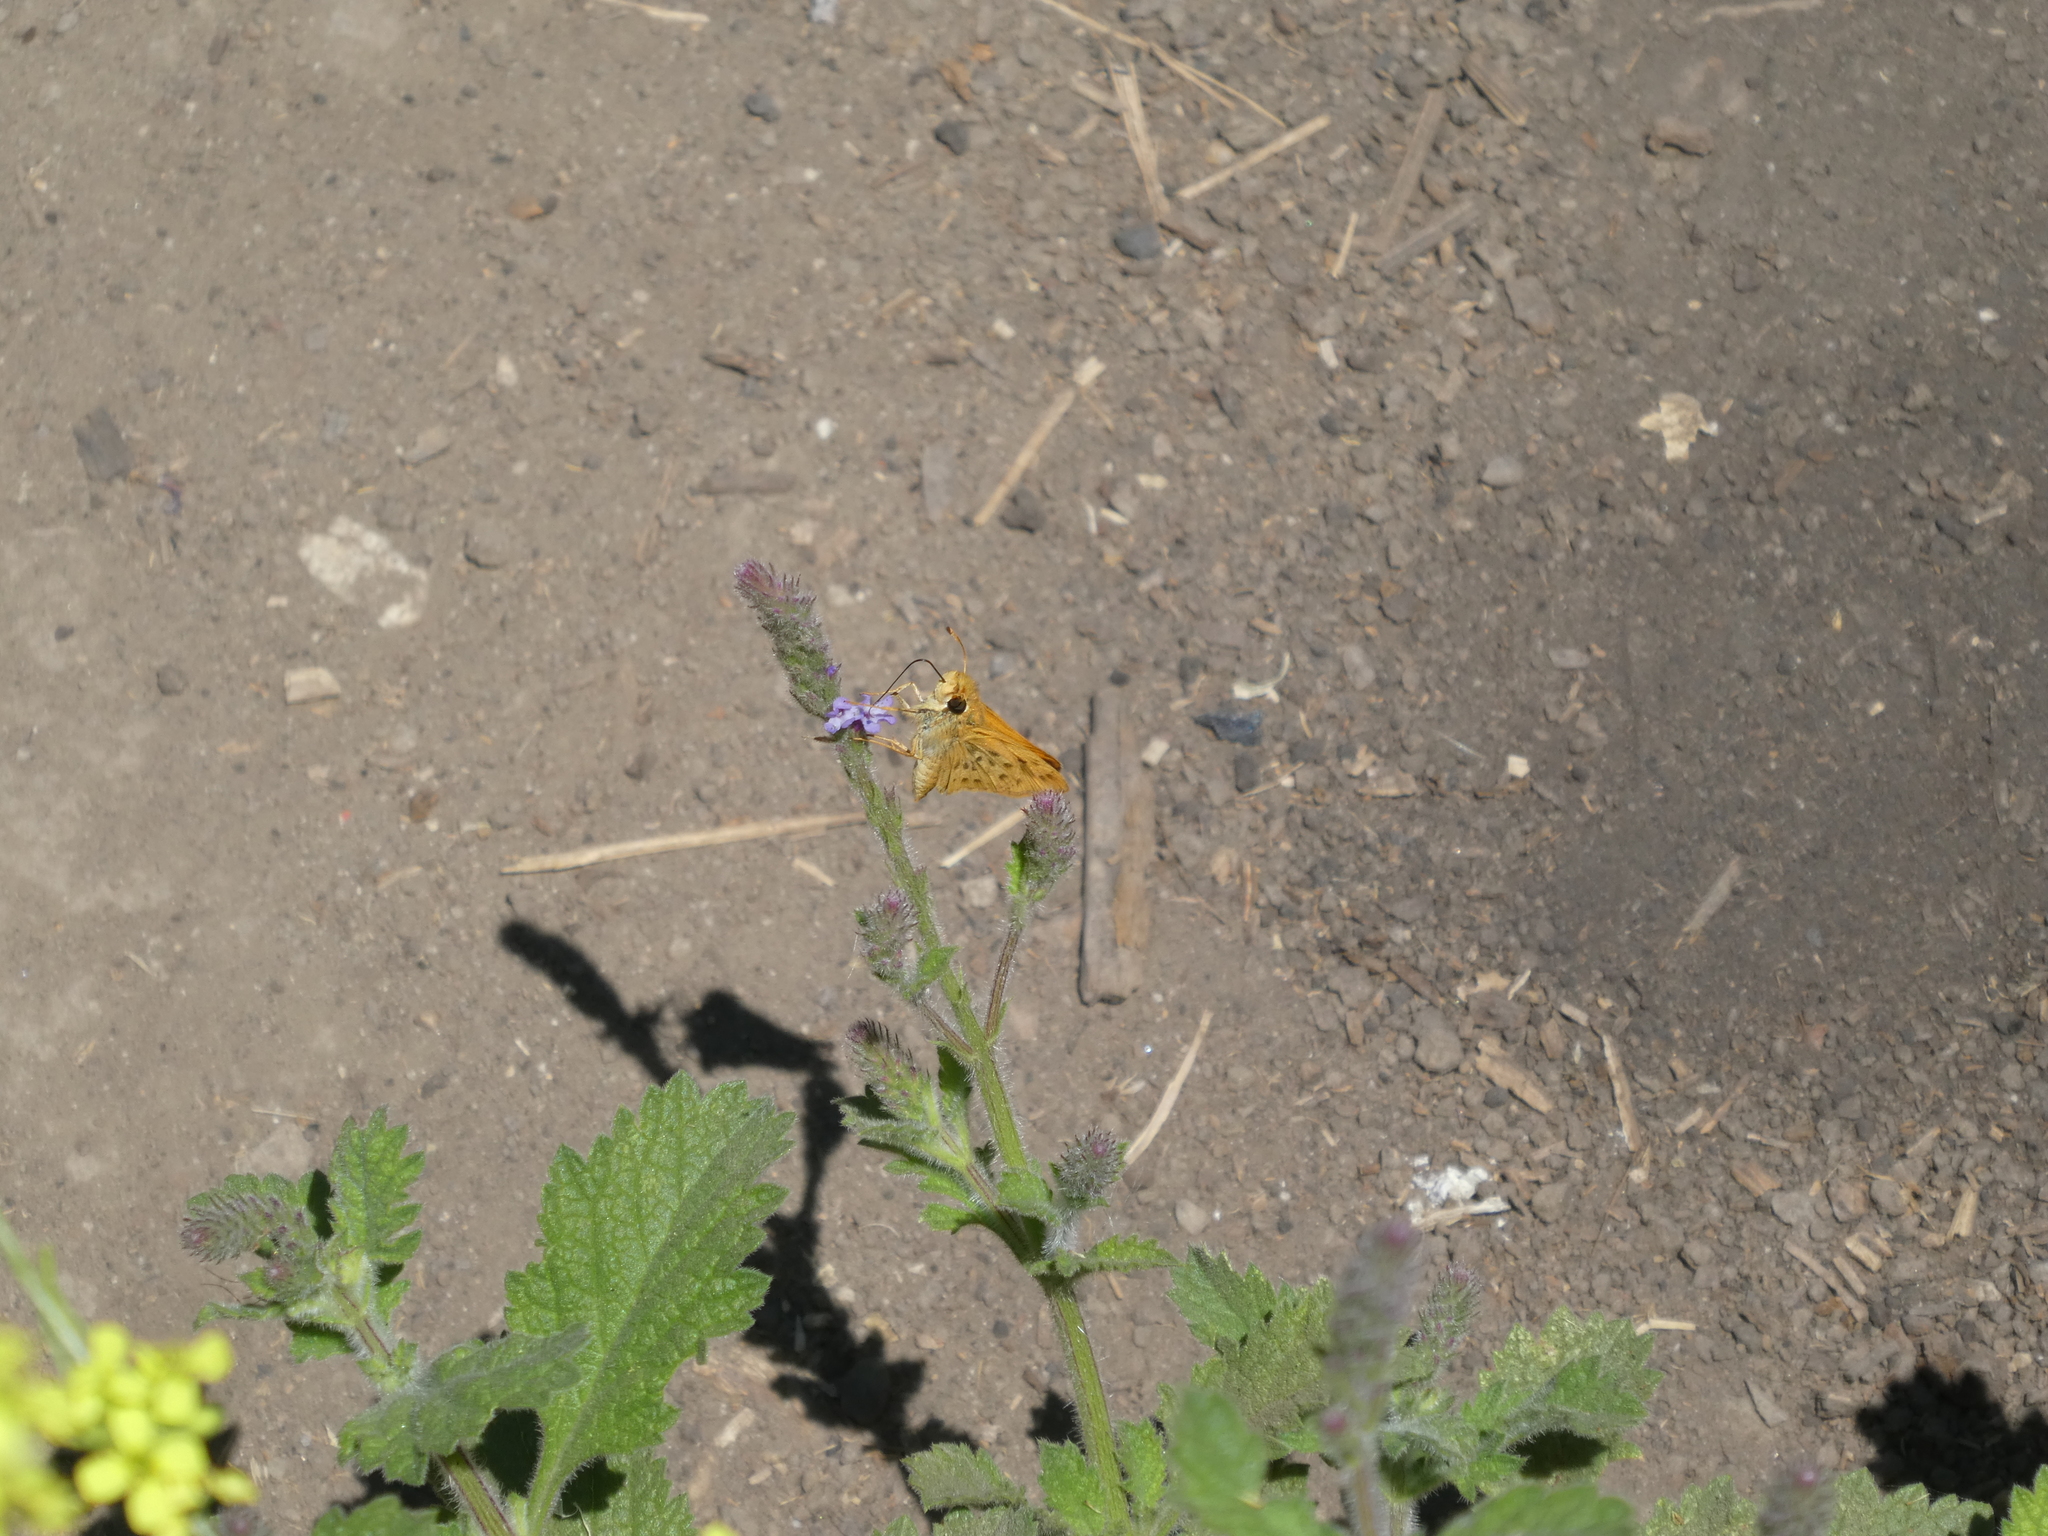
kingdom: Animalia
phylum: Arthropoda
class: Insecta
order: Lepidoptera
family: Hesperiidae
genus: Hylephila
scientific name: Hylephila phyleus
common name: Fiery skipper
